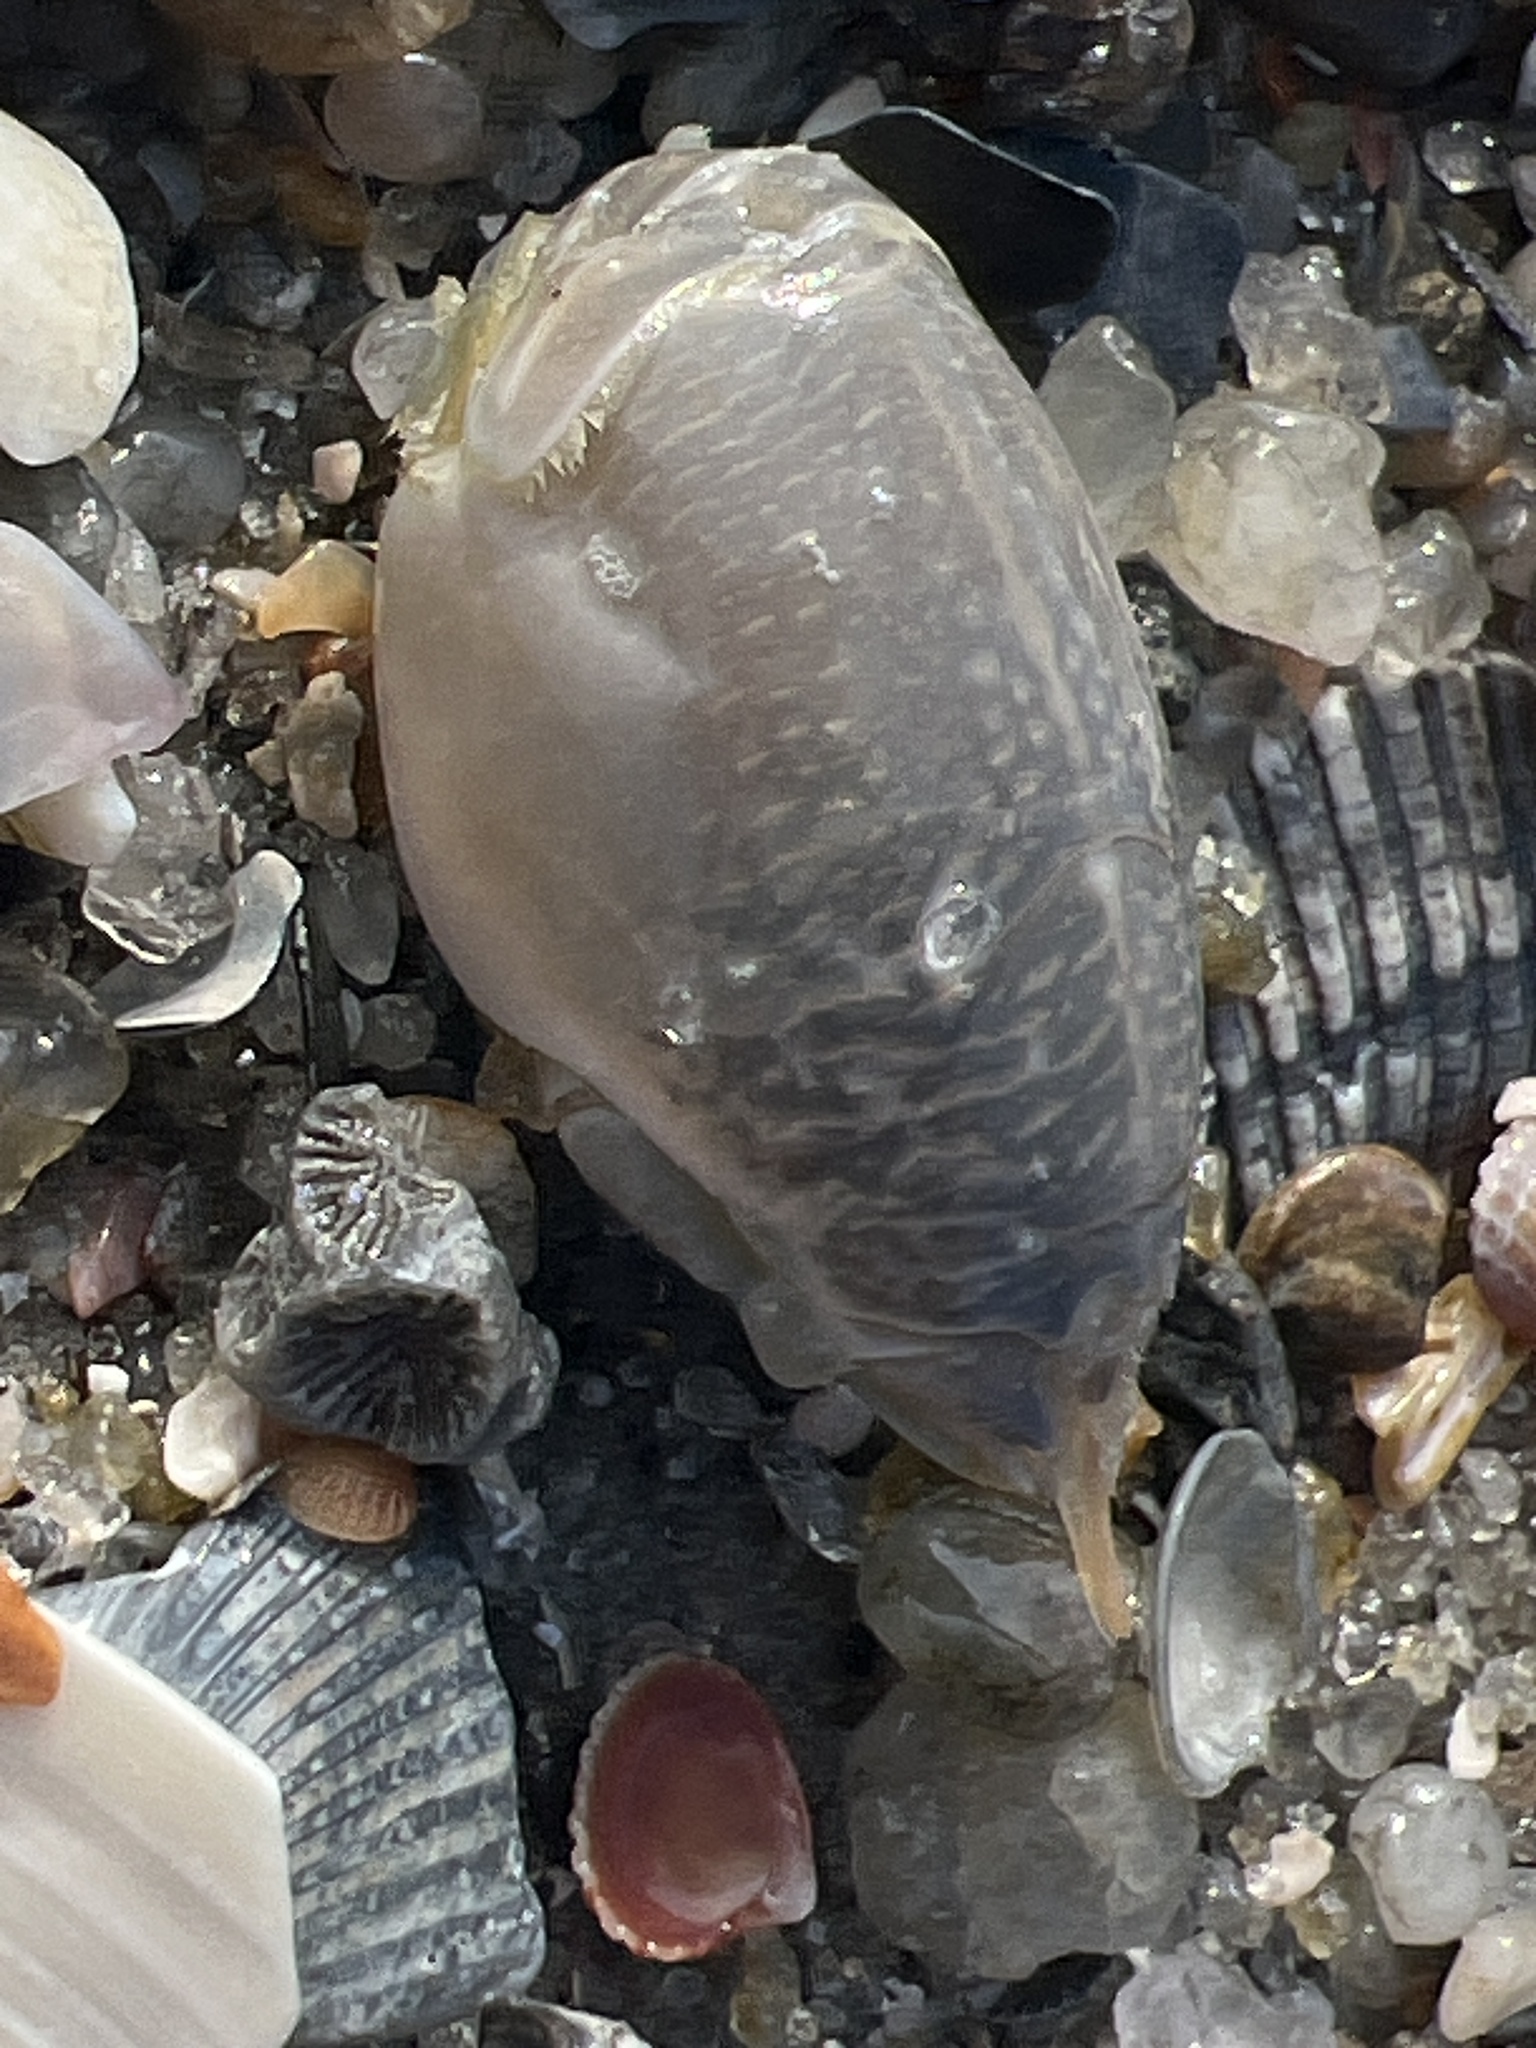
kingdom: Animalia
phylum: Arthropoda
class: Malacostraca
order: Decapoda
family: Hippidae
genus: Emerita
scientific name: Emerita talpoida
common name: Atlantic sand crab
